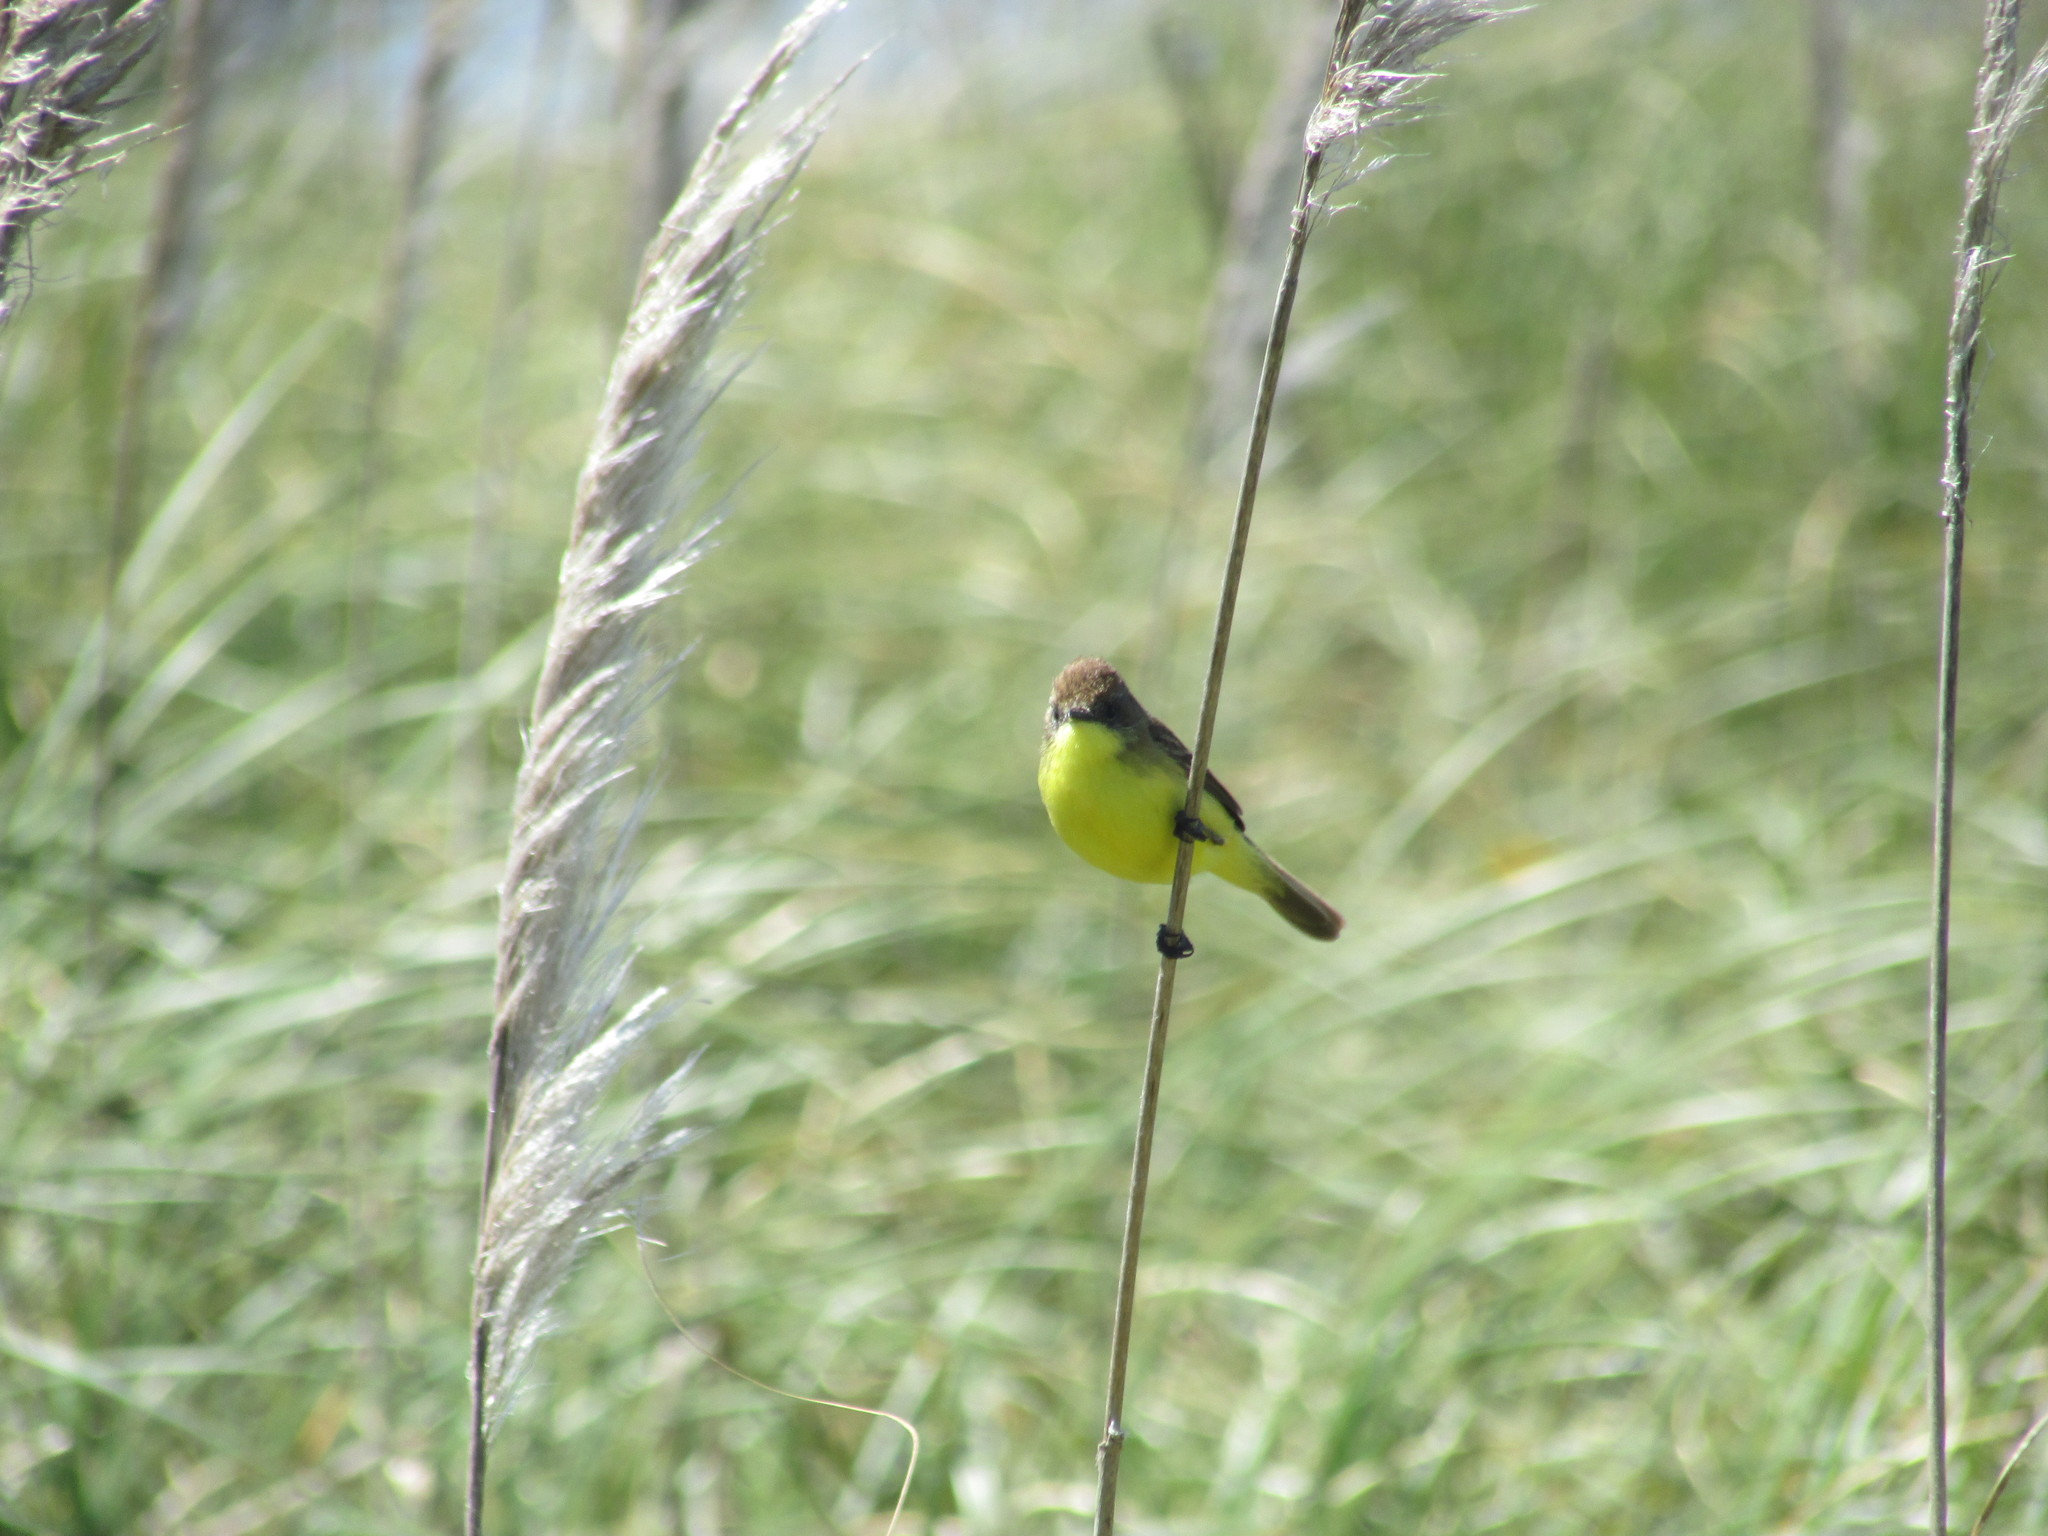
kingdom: Animalia
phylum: Chordata
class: Aves
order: Passeriformes
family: Tyrannidae
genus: Pseudocolopteryx
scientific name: Pseudocolopteryx flaviventris
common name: Warbling doradito
